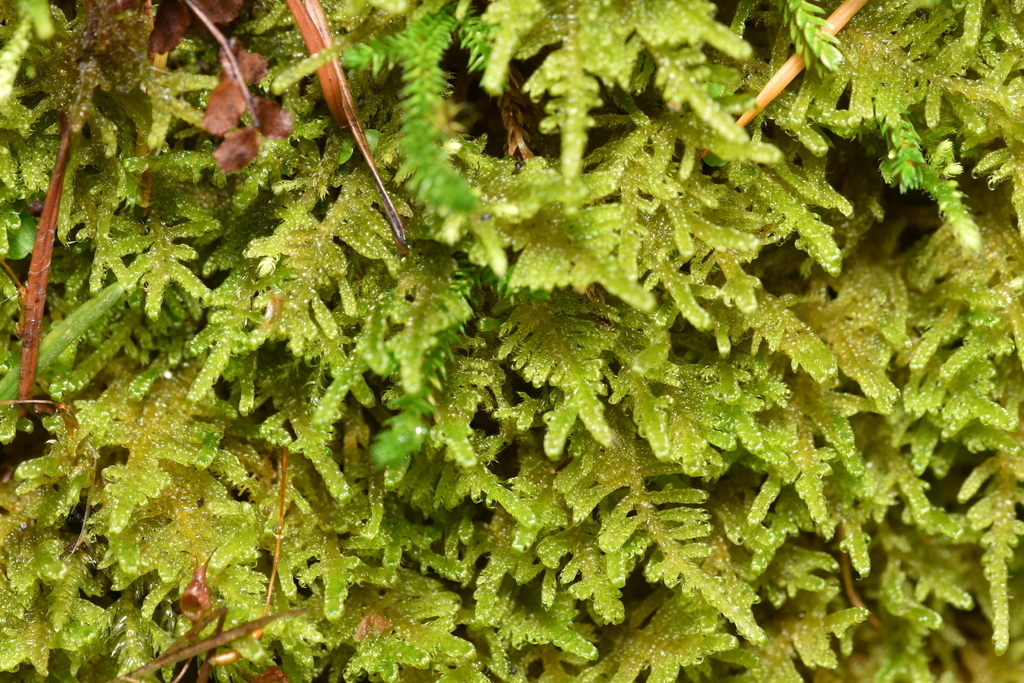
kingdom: Plantae
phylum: Bryophyta
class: Bryopsida
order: Hypnales
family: Stereodontaceae
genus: Stereodon
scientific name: Stereodon subimponens
